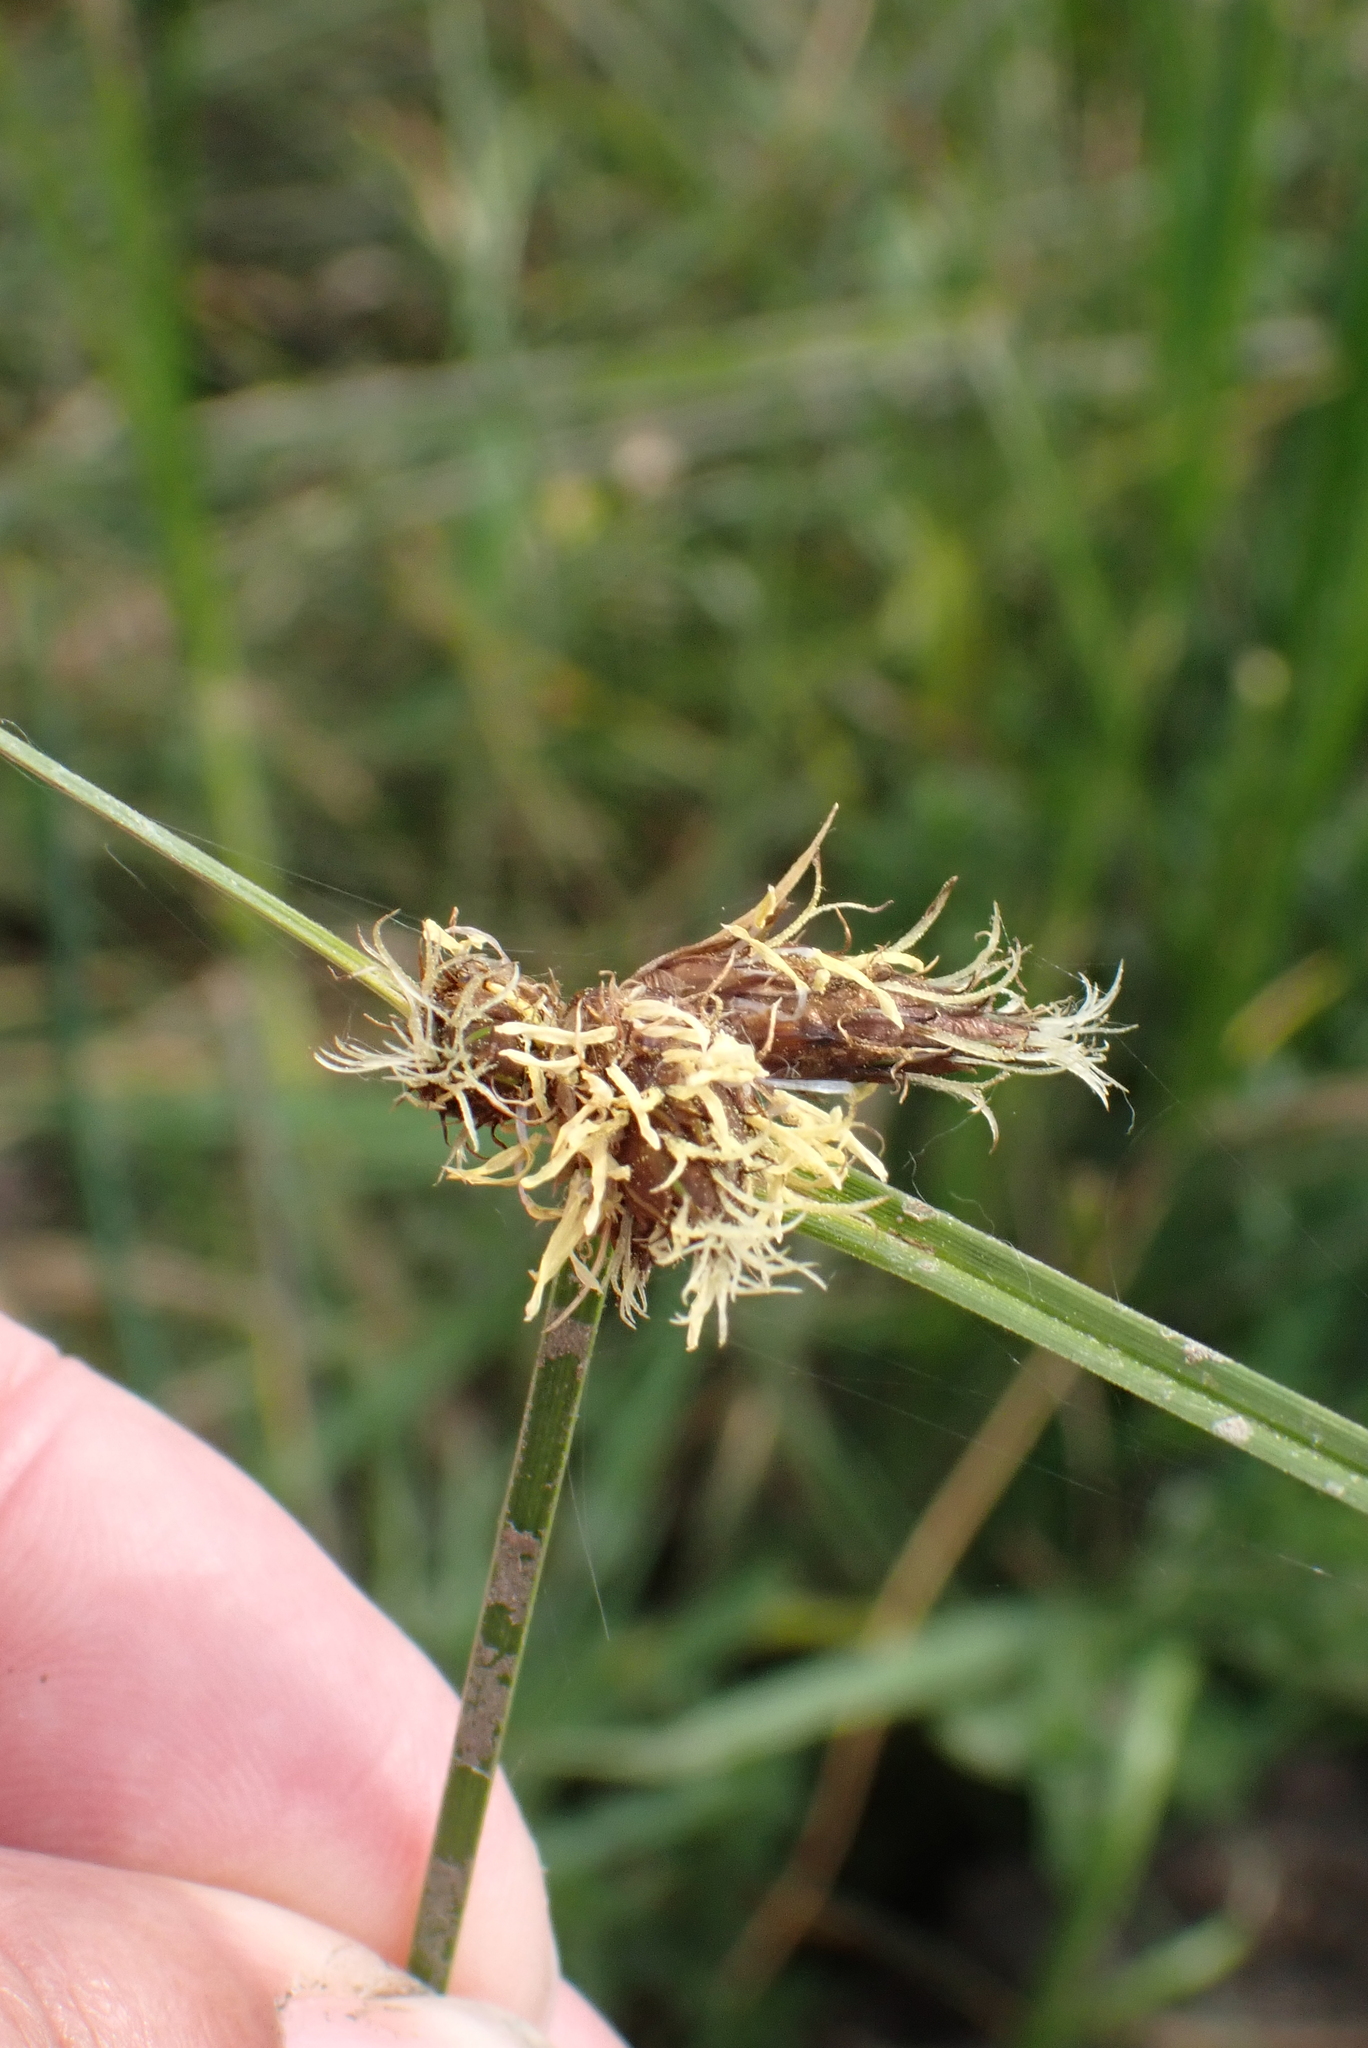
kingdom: Plantae
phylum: Tracheophyta
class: Liliopsida
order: Poales
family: Cyperaceae
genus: Bolboschoenus
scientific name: Bolboschoenus maritimus
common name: Sea club-rush
